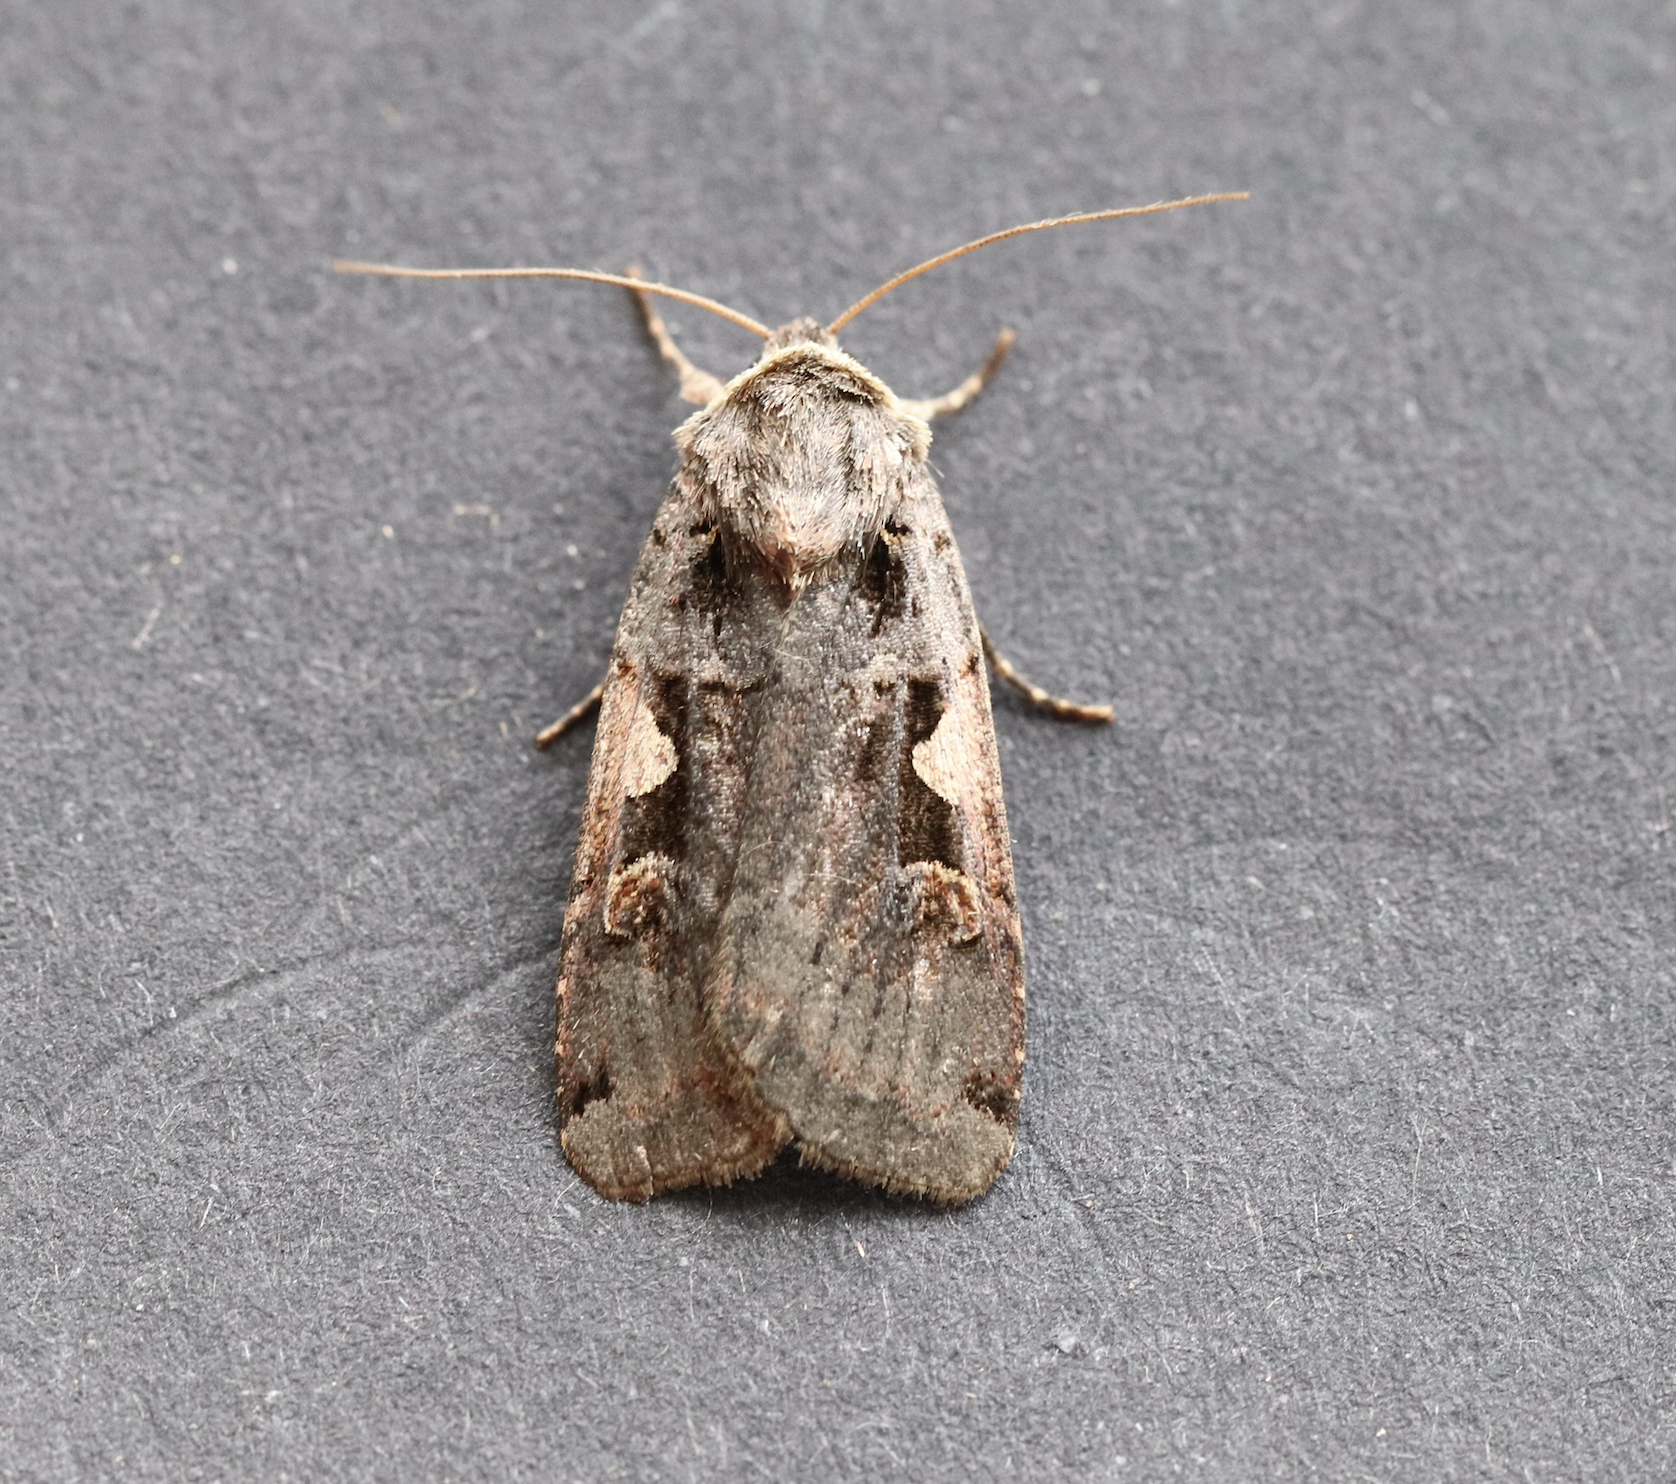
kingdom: Animalia
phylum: Arthropoda
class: Insecta
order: Lepidoptera
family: Noctuidae
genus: Xestia
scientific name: Xestia c-nigrum
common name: Setaceous hebrew character
